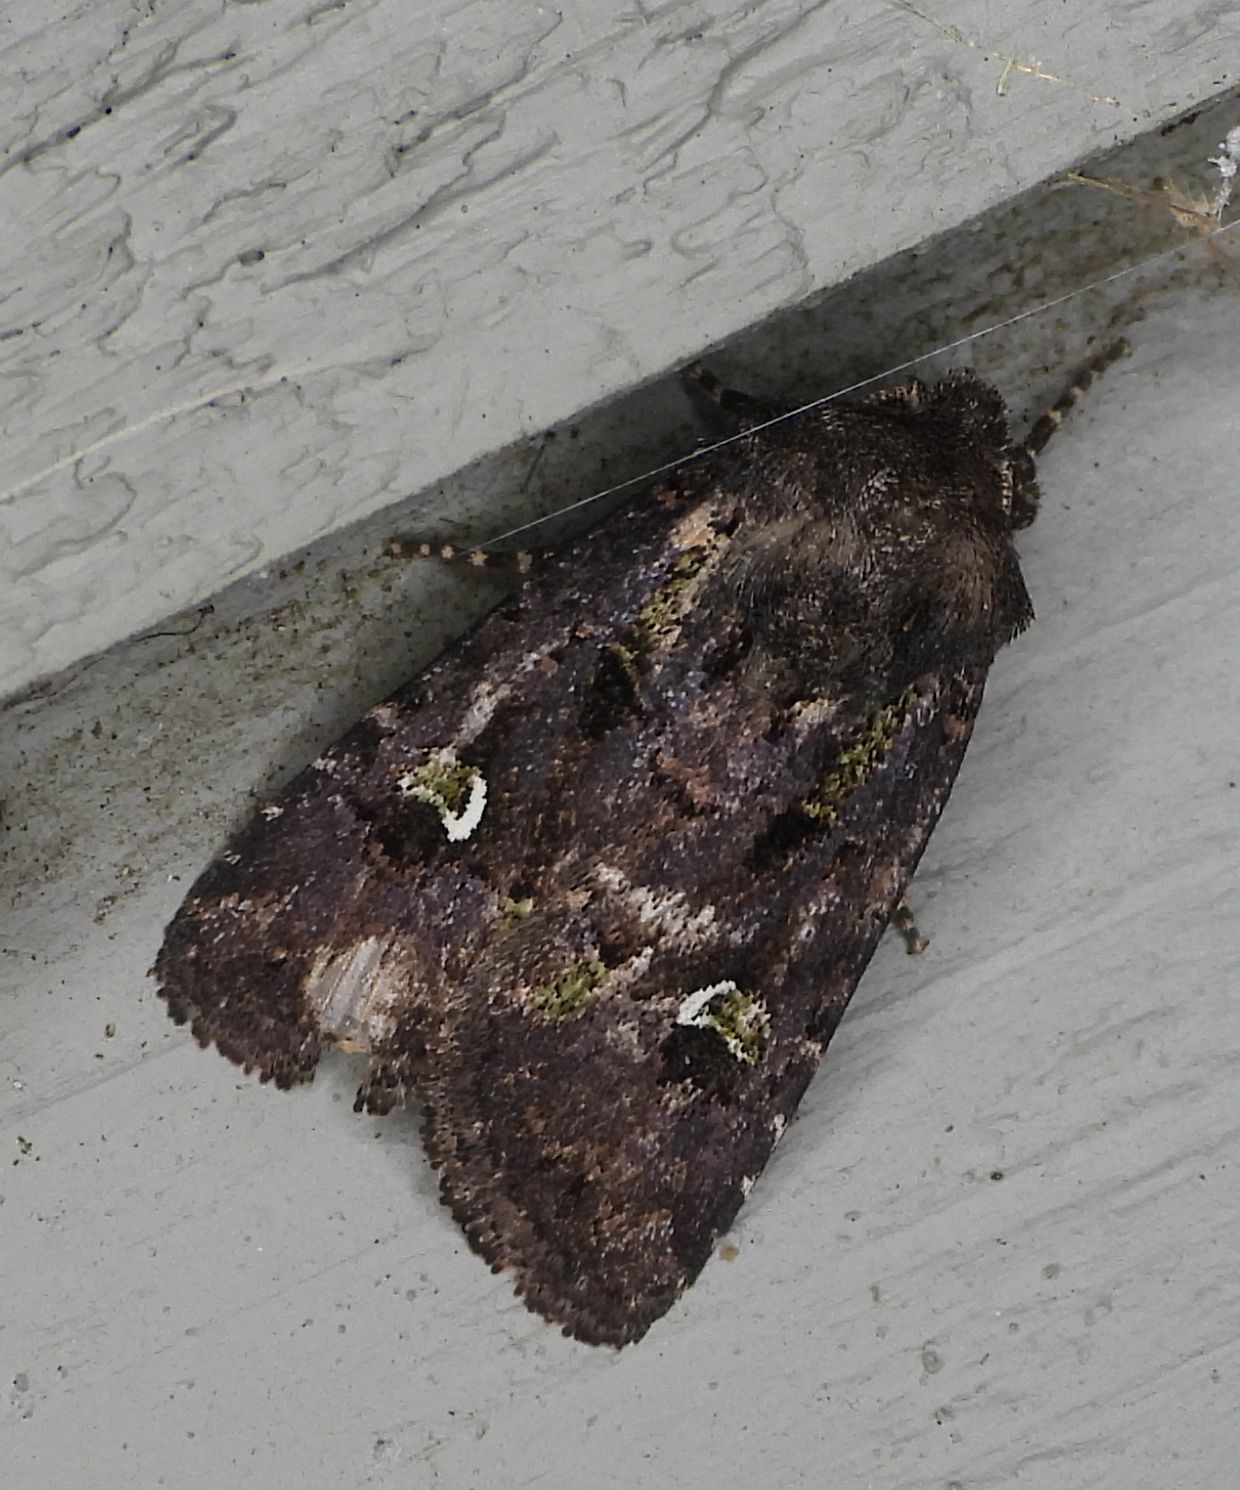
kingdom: Animalia
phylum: Arthropoda
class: Insecta
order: Lepidoptera
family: Noctuidae
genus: Lacinipolia
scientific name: Lacinipolia renigera
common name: Kidney-spotted minor
